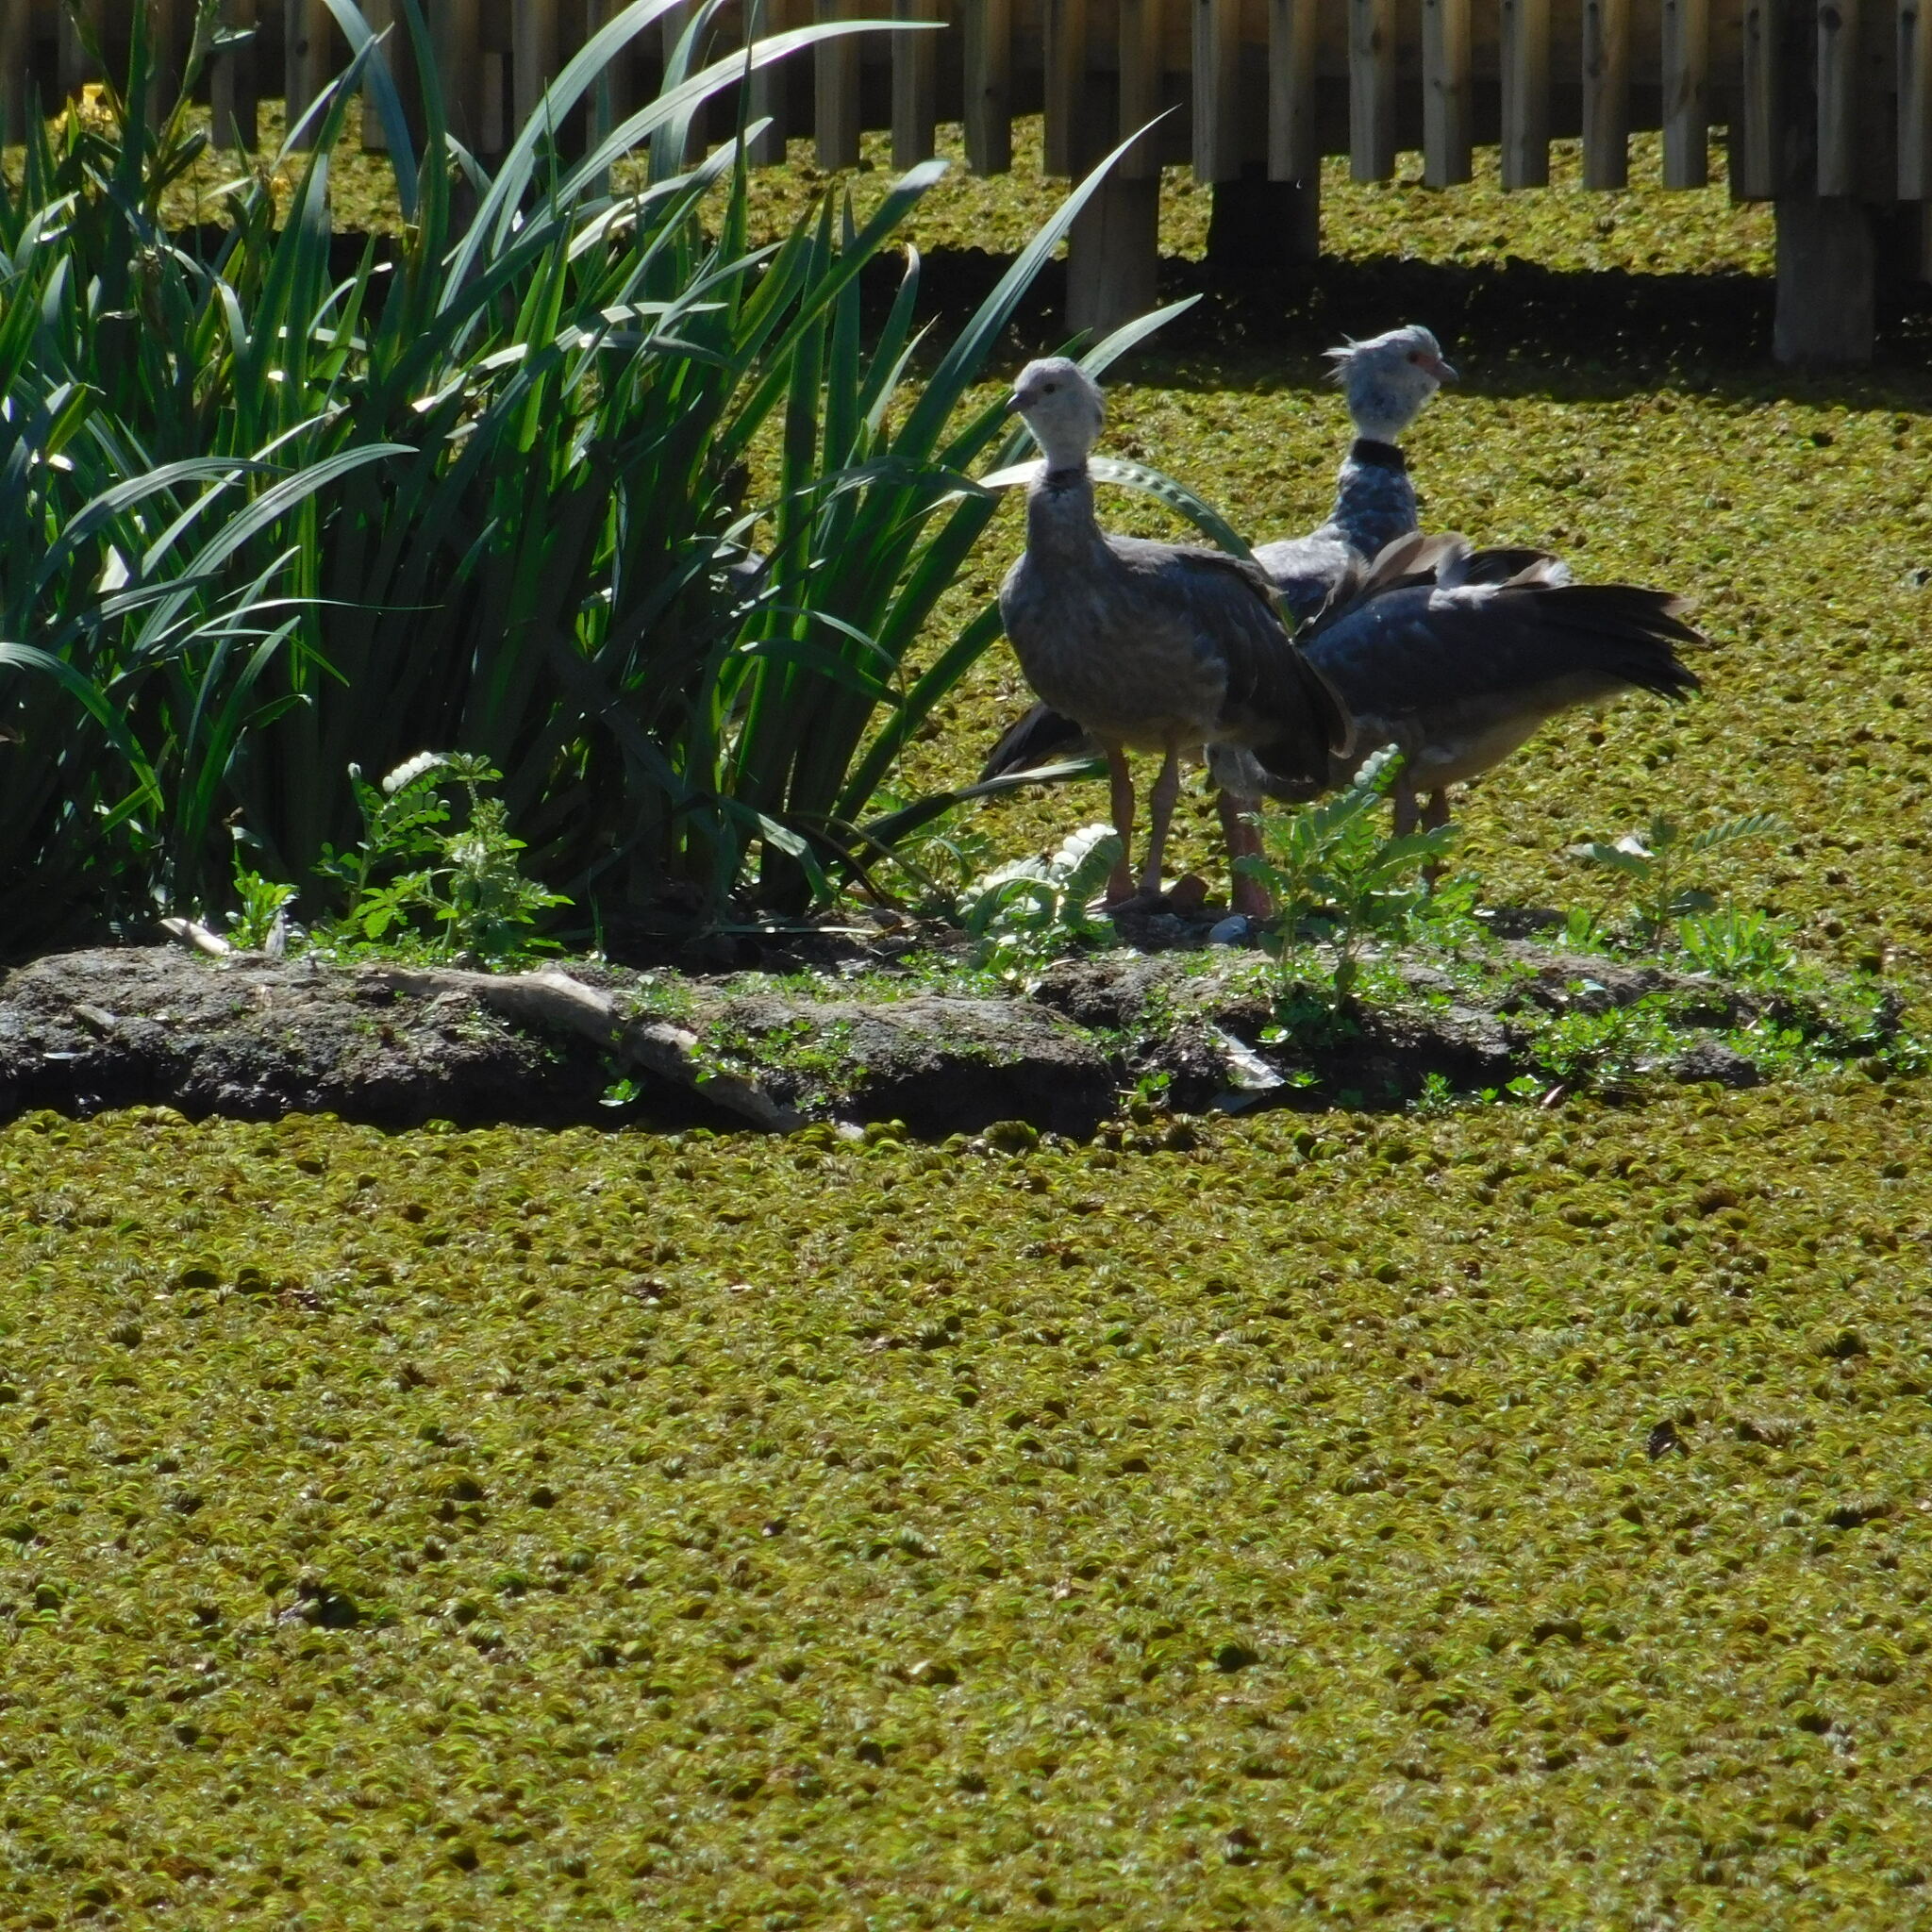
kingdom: Animalia
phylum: Chordata
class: Aves
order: Anseriformes
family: Anhimidae
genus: Chauna
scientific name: Chauna torquata
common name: Southern screamer
